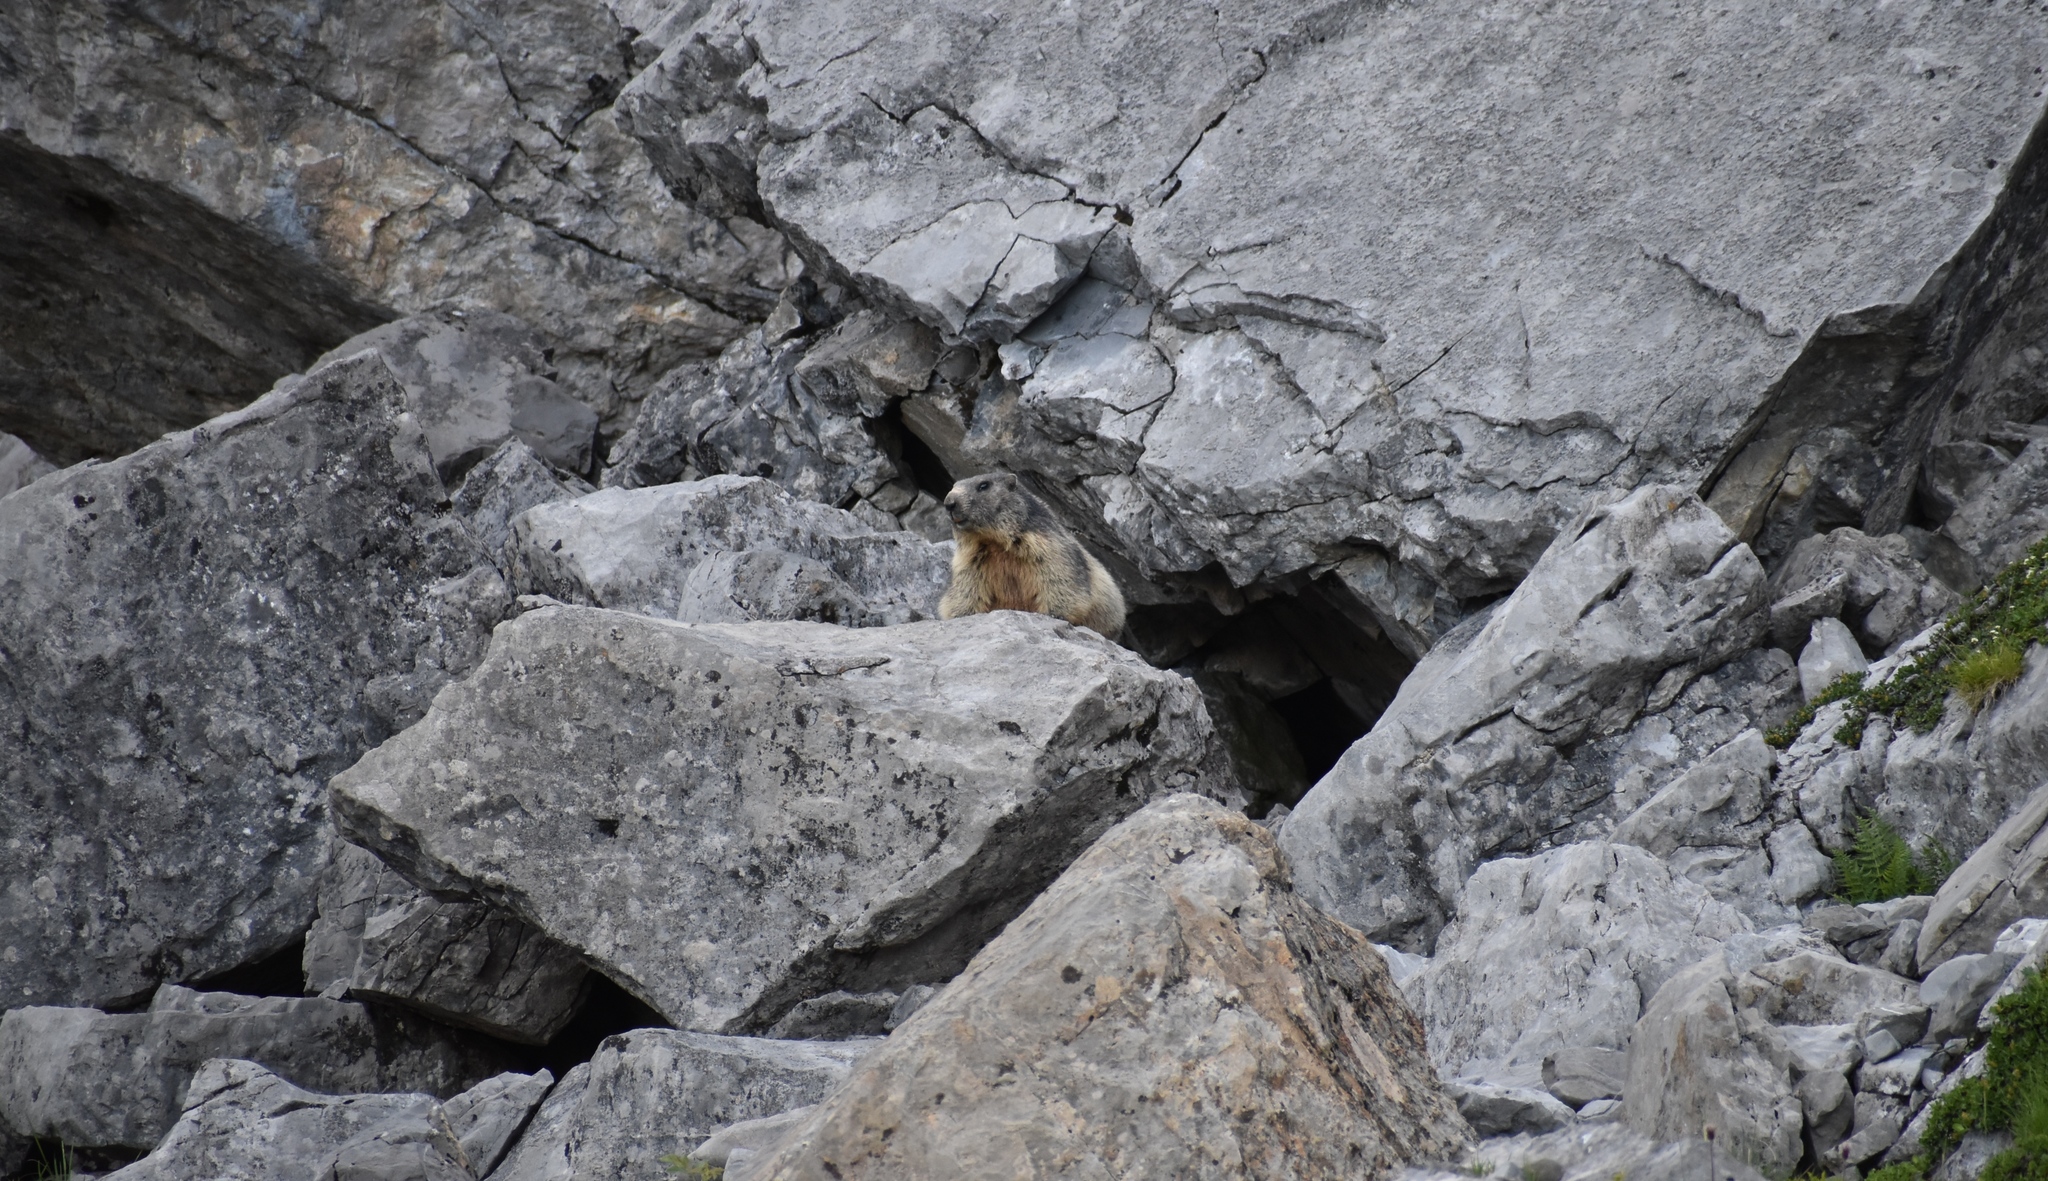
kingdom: Animalia
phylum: Chordata
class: Mammalia
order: Rodentia
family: Sciuridae
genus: Marmota
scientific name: Marmota marmota
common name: Alpine marmot
